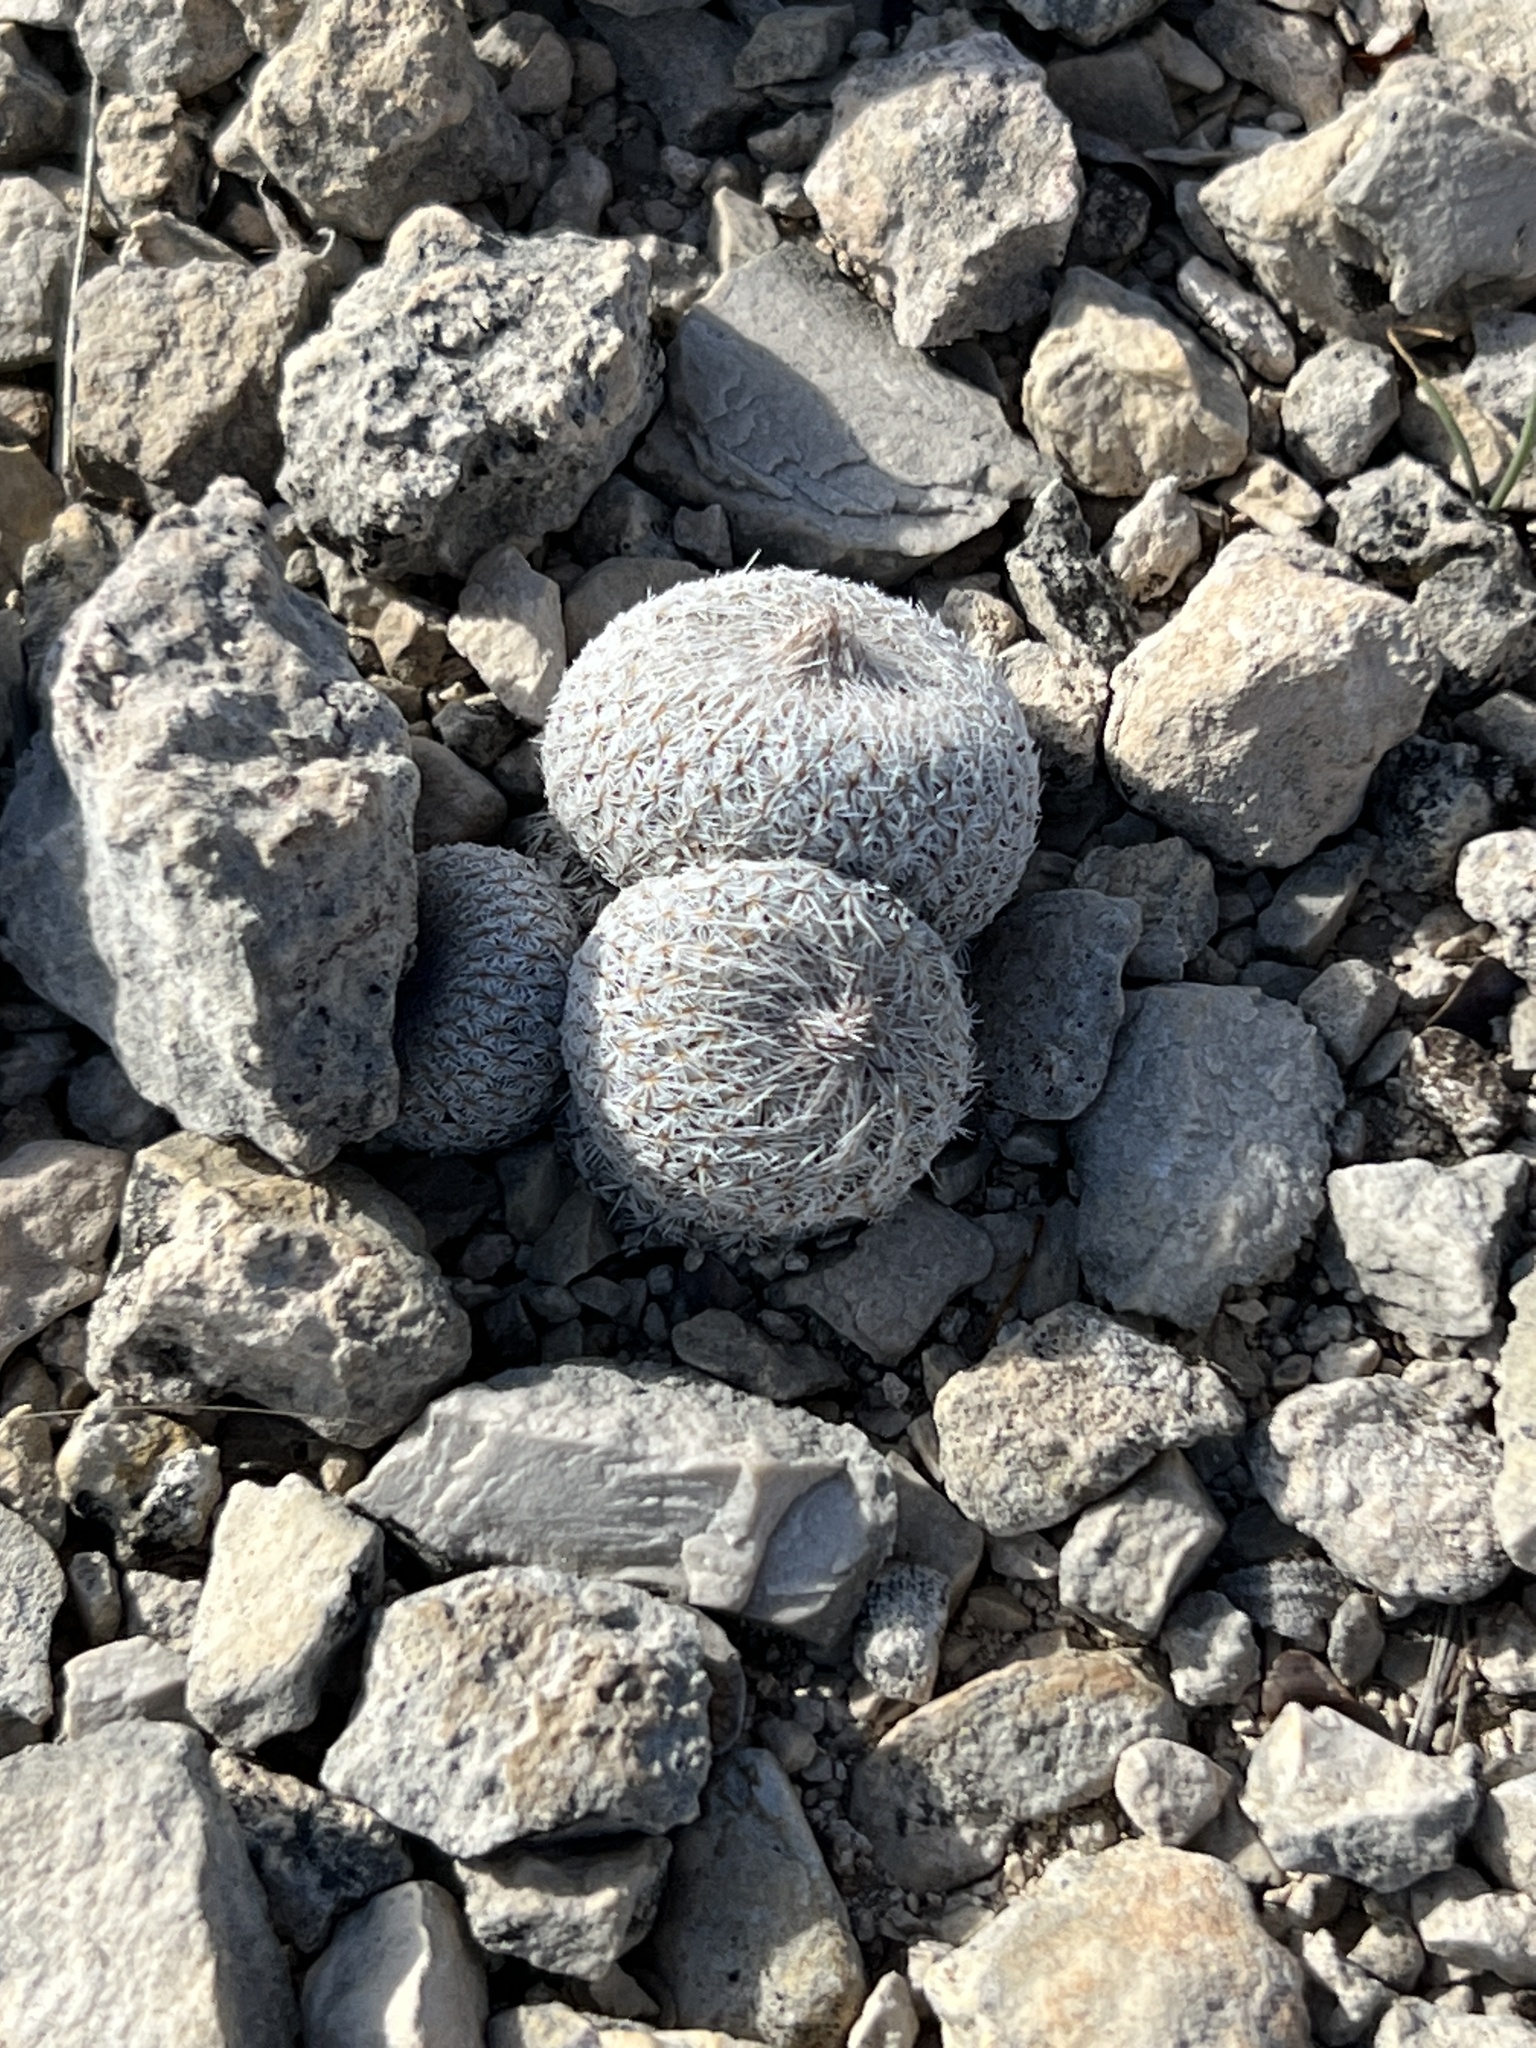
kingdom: Plantae
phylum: Tracheophyta
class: Magnoliopsida
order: Caryophyllales
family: Cactaceae
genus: Epithelantha
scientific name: Epithelantha micromeris
